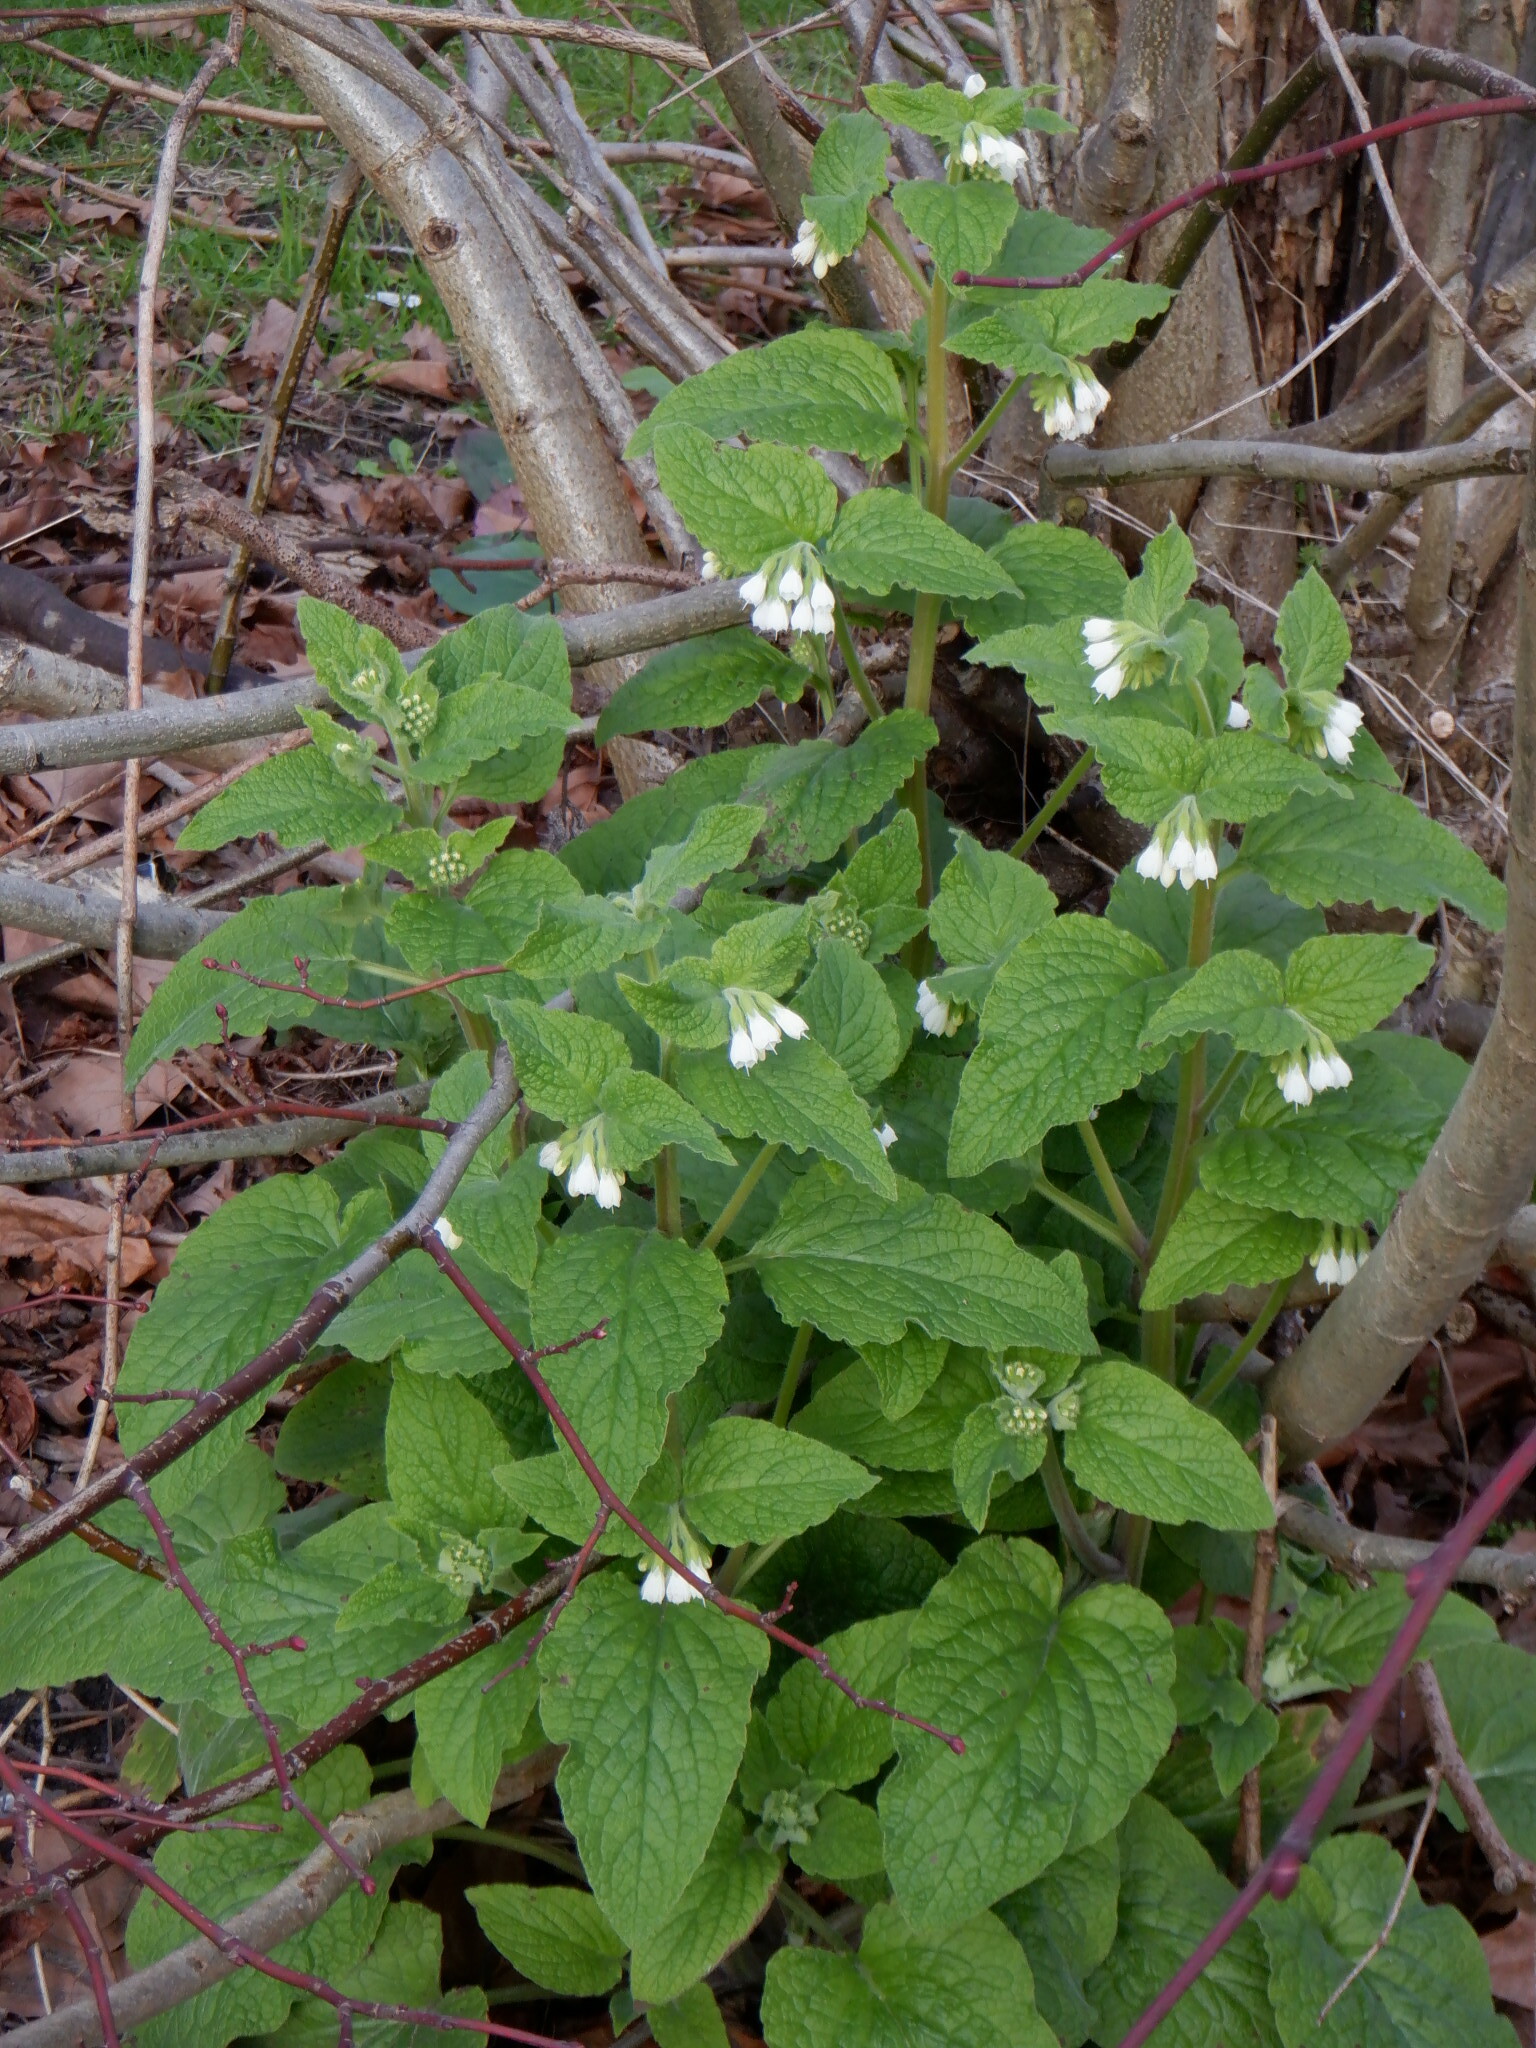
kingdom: Plantae
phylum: Tracheophyta
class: Magnoliopsida
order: Boraginales
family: Boraginaceae
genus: Symphytum
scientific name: Symphytum orientale
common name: White comfrey
